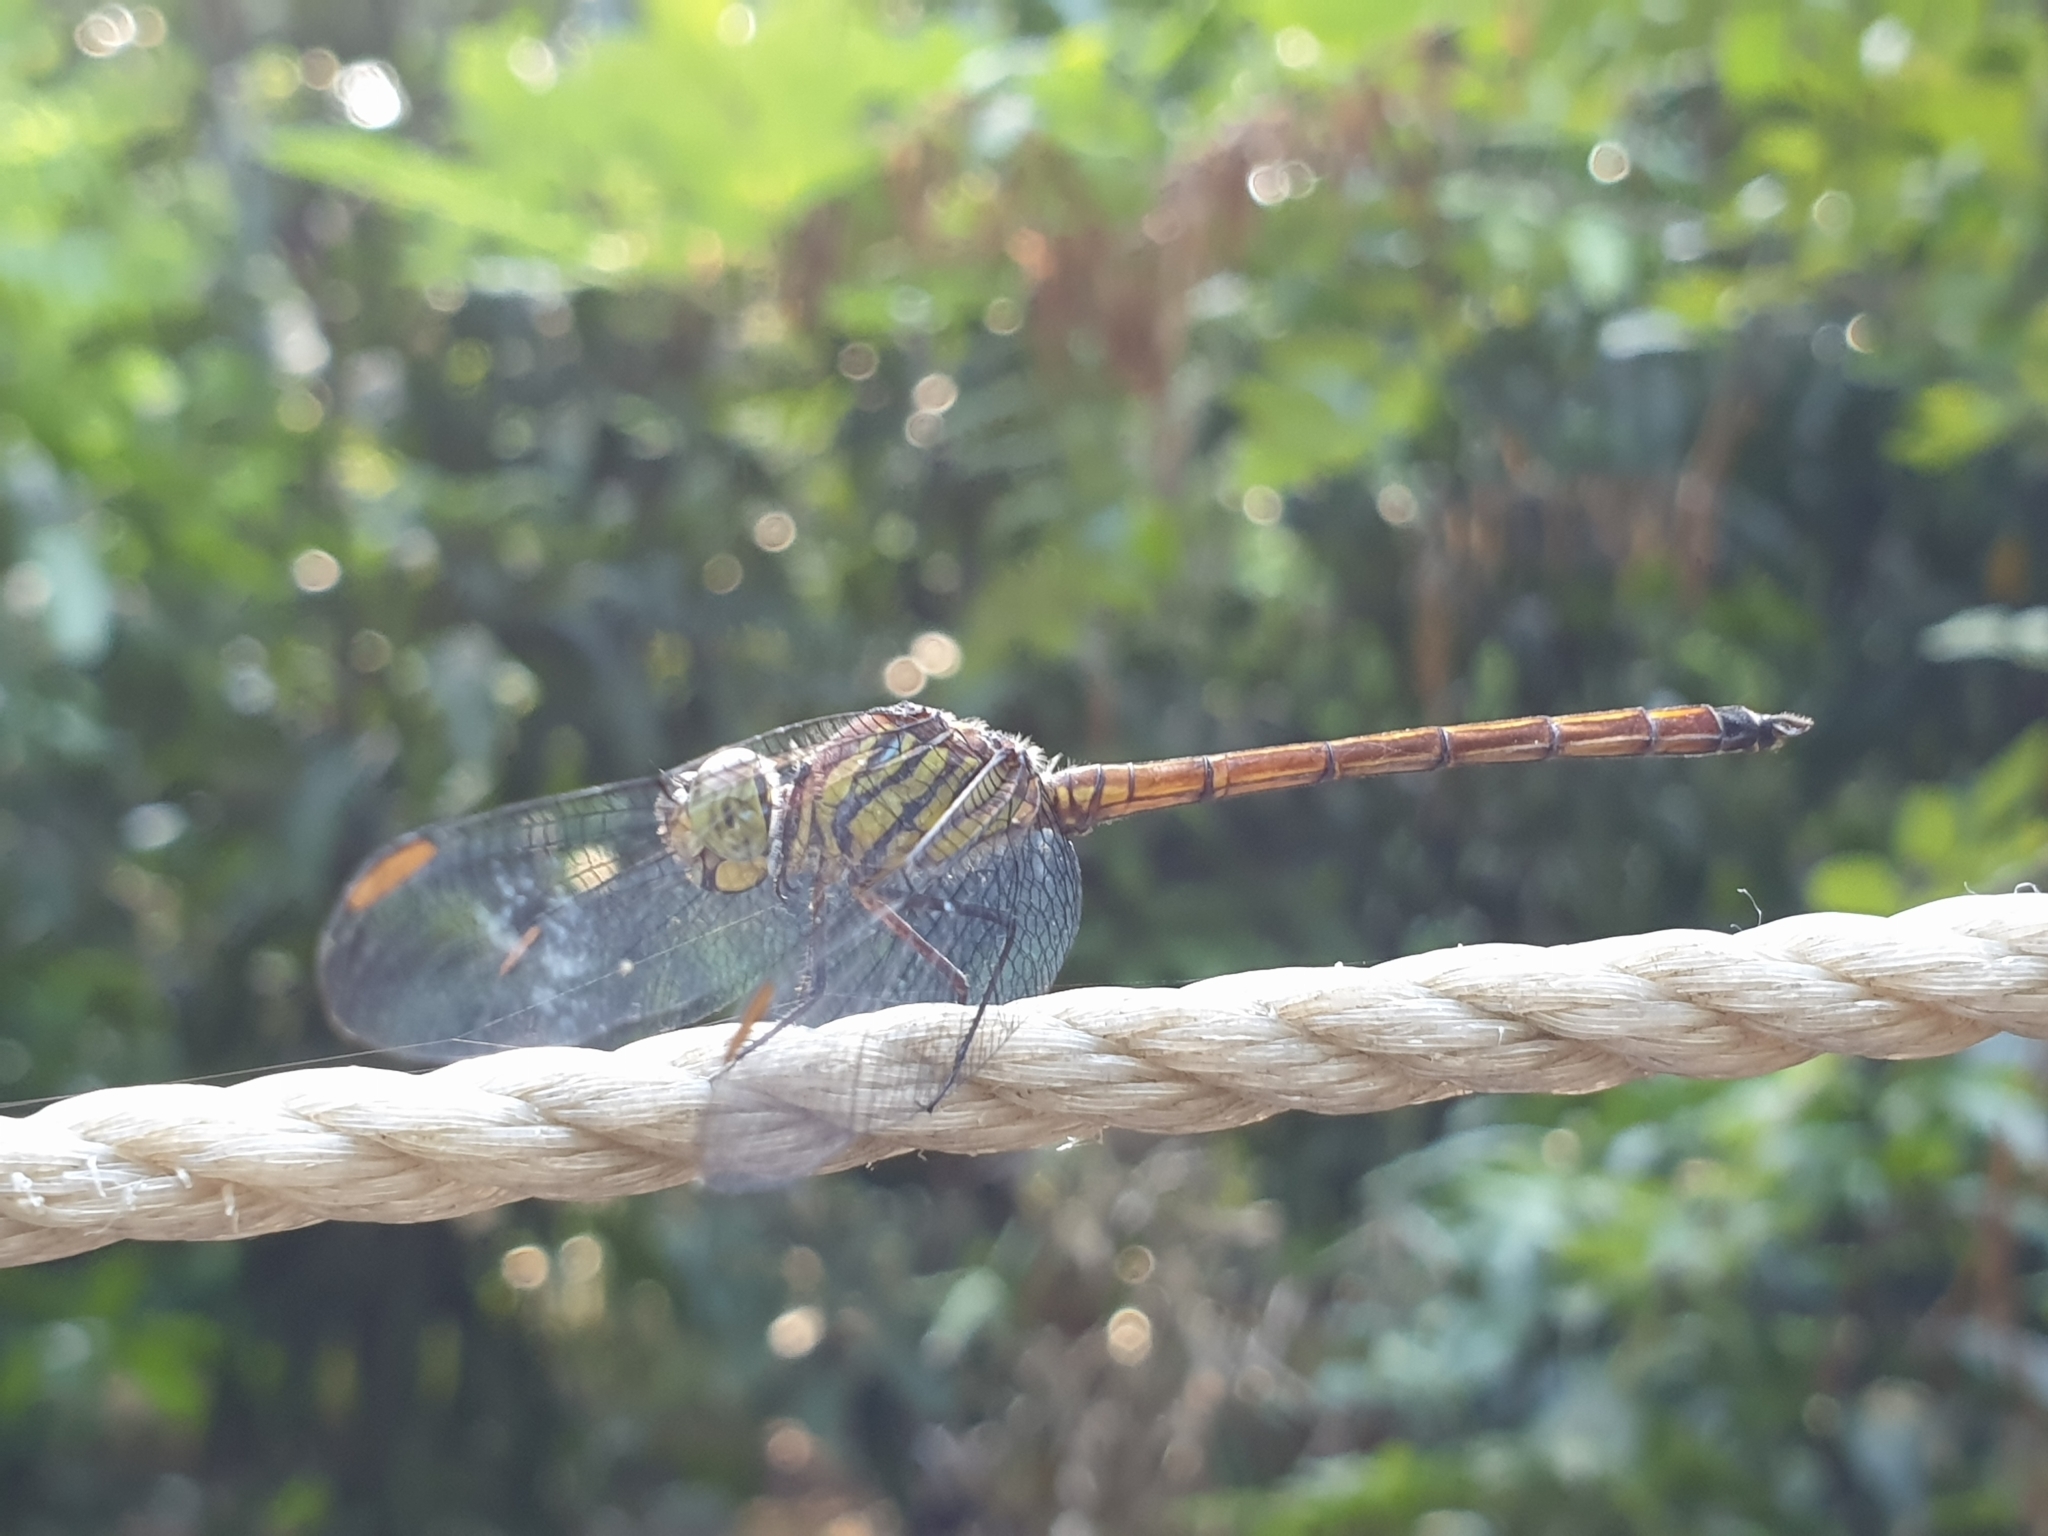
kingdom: Animalia
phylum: Arthropoda
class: Insecta
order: Odonata
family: Libellulidae
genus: Lathrecista
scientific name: Lathrecista asiatica
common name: Scarlet grenadier
